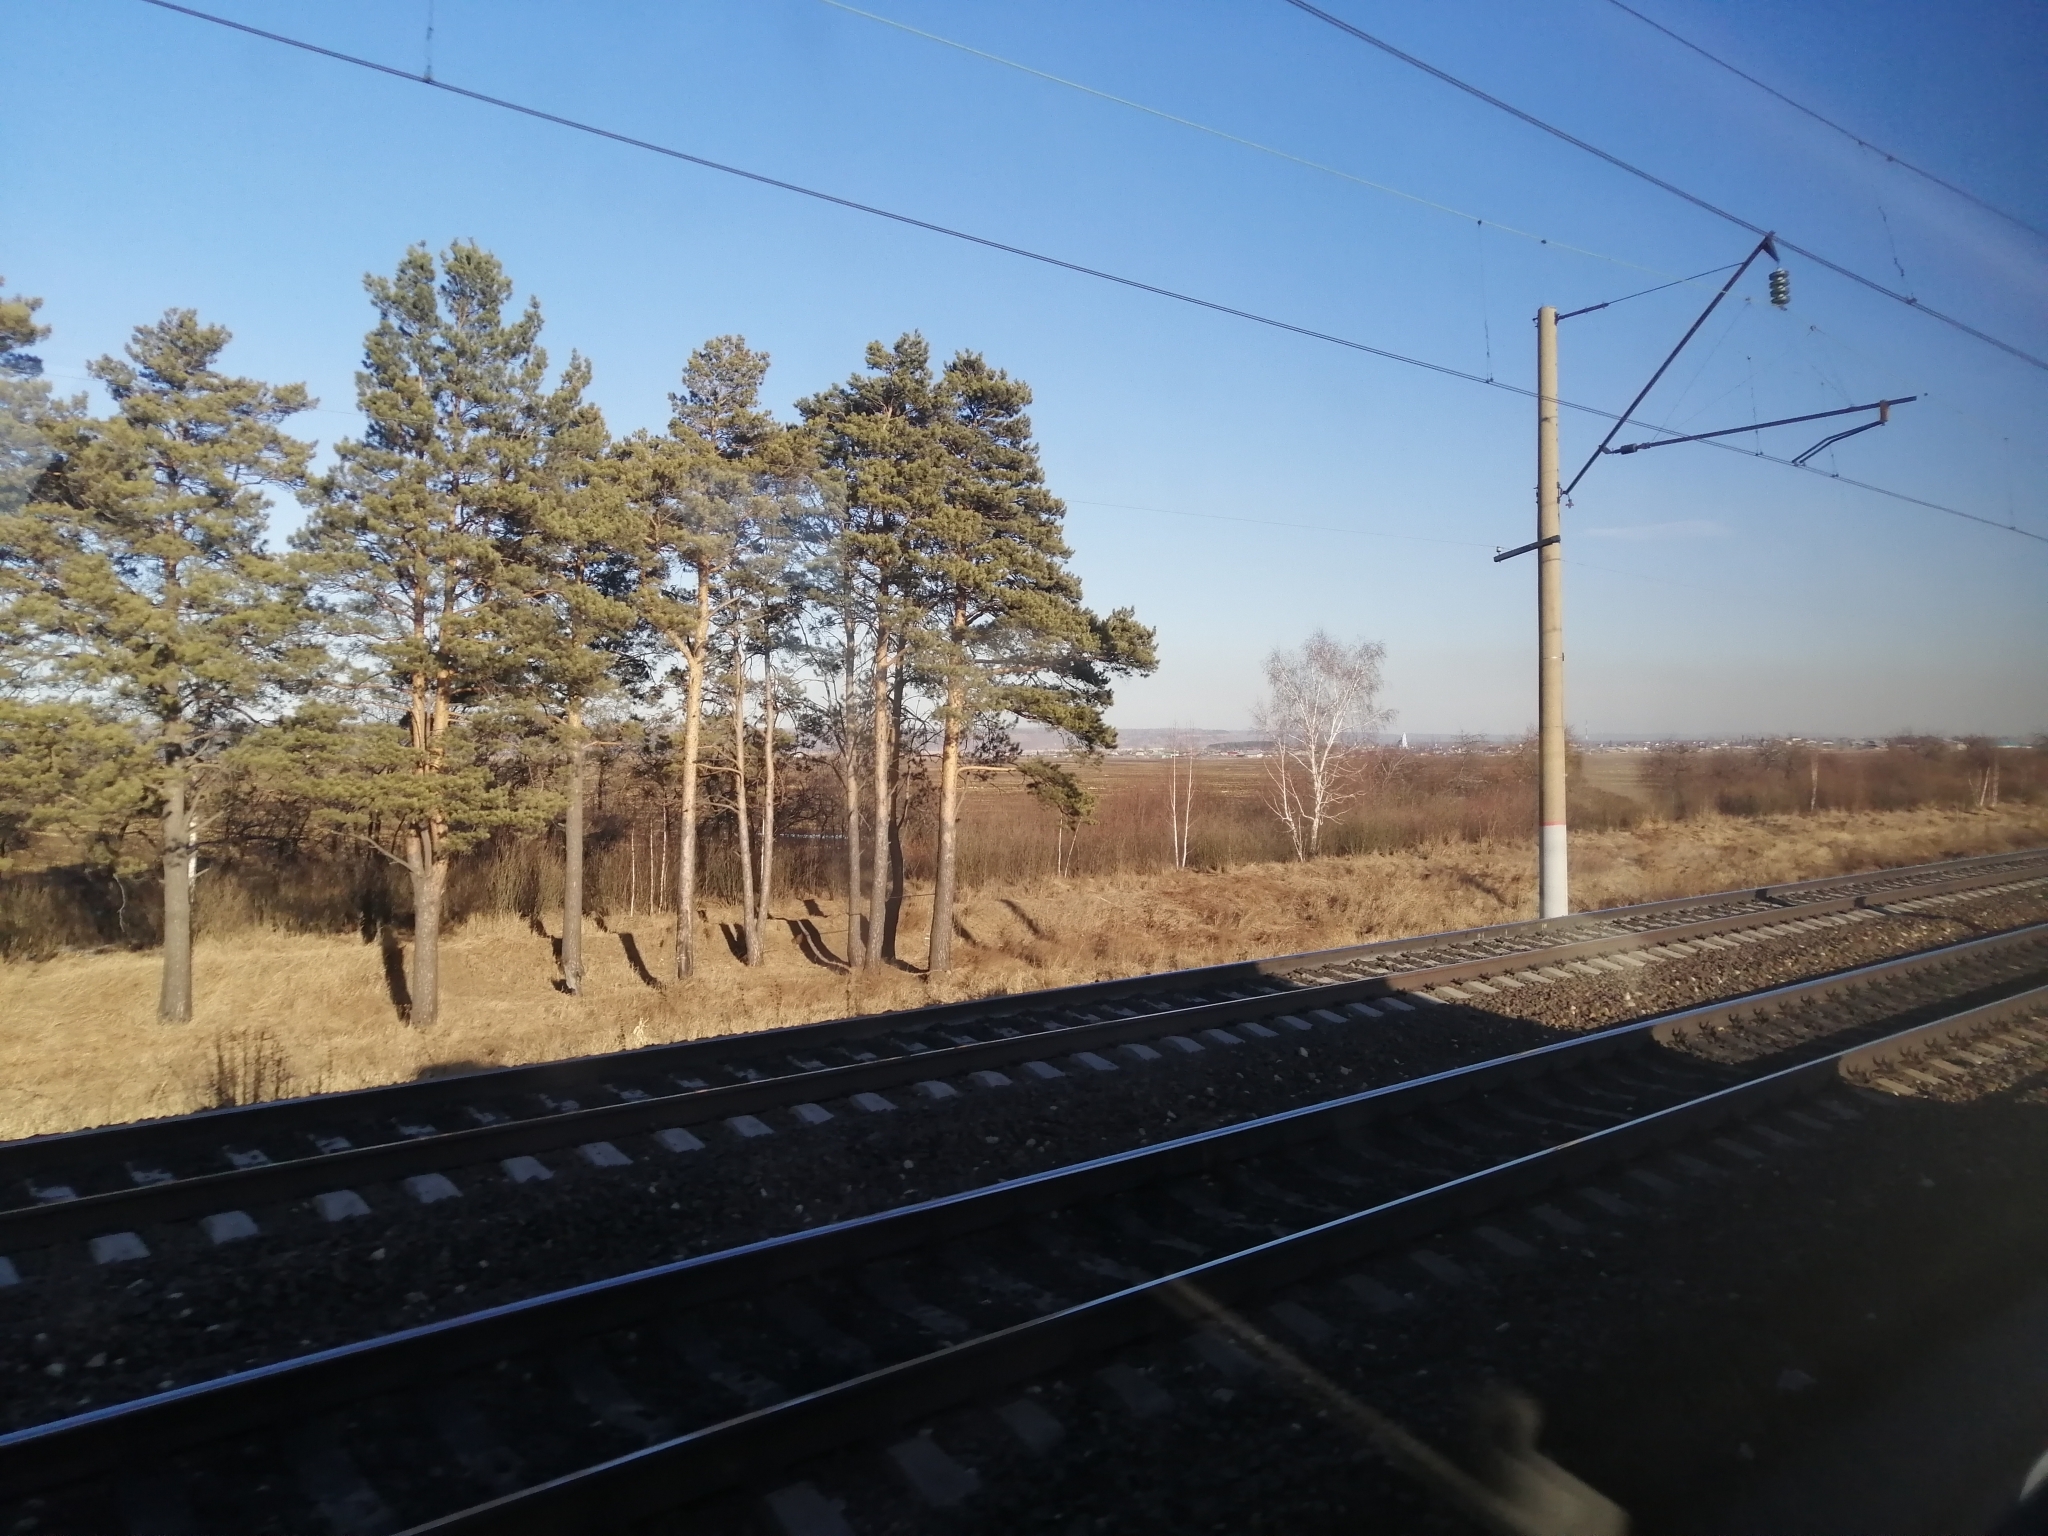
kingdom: Plantae
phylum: Tracheophyta
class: Pinopsida
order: Pinales
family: Pinaceae
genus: Pinus
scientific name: Pinus sylvestris
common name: Scots pine
